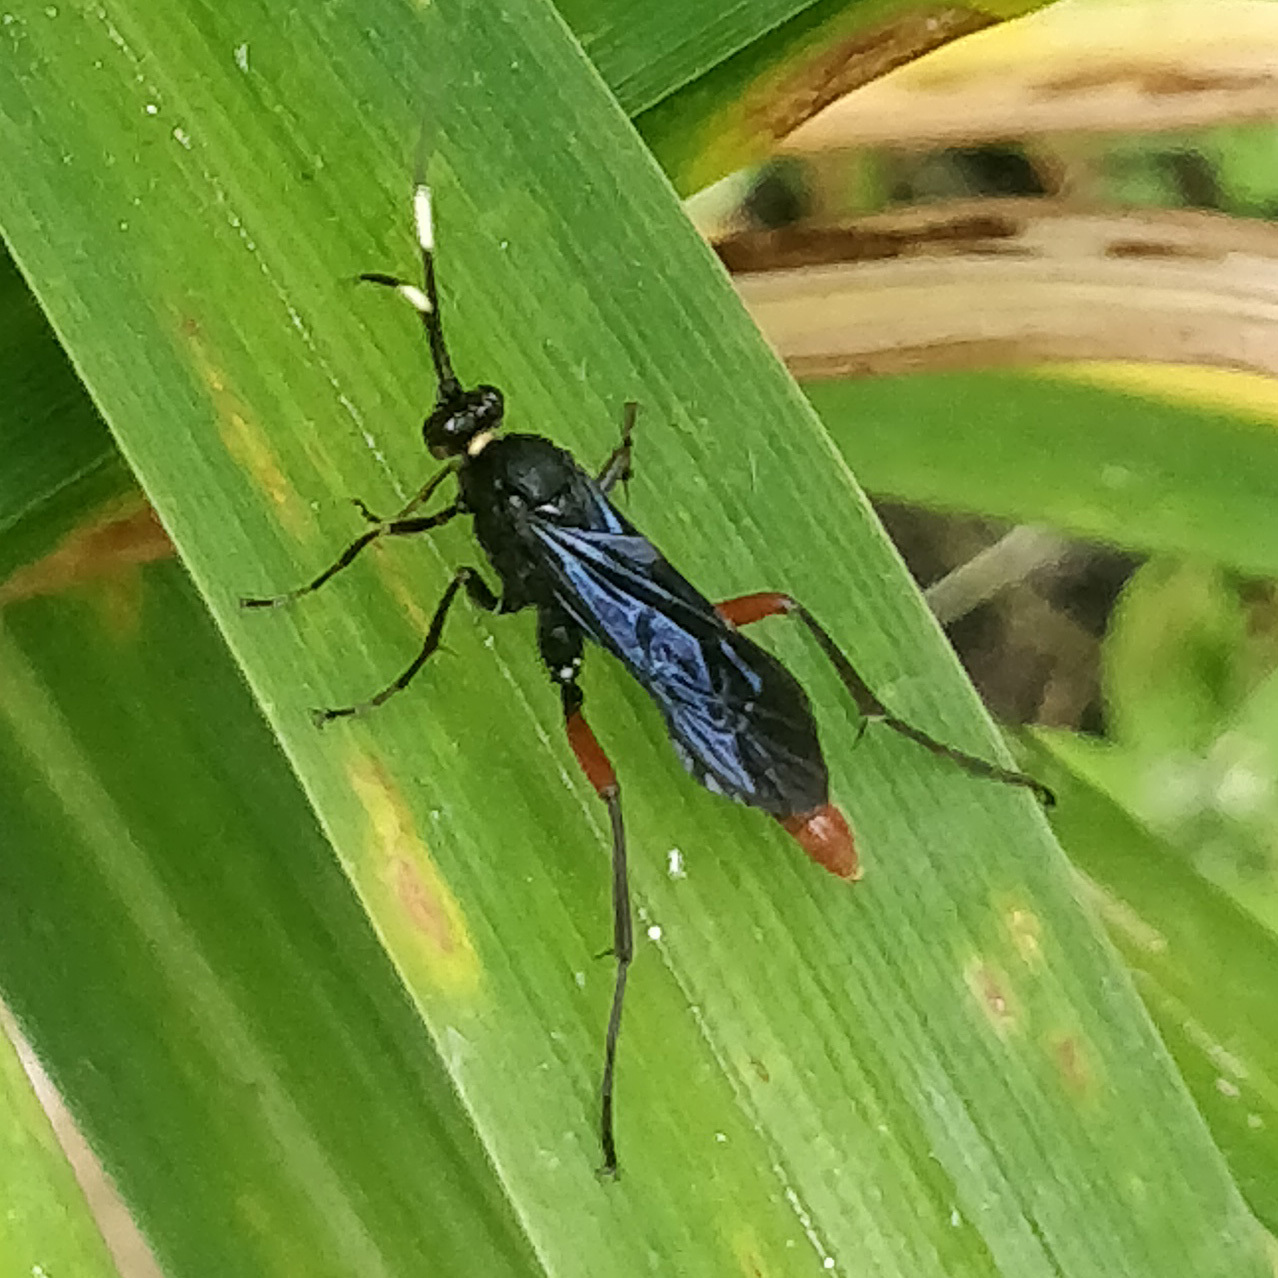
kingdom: Animalia
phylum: Arthropoda
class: Insecta
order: Hymenoptera
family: Ichneumonidae
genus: Limonethe
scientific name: Limonethe maurator
